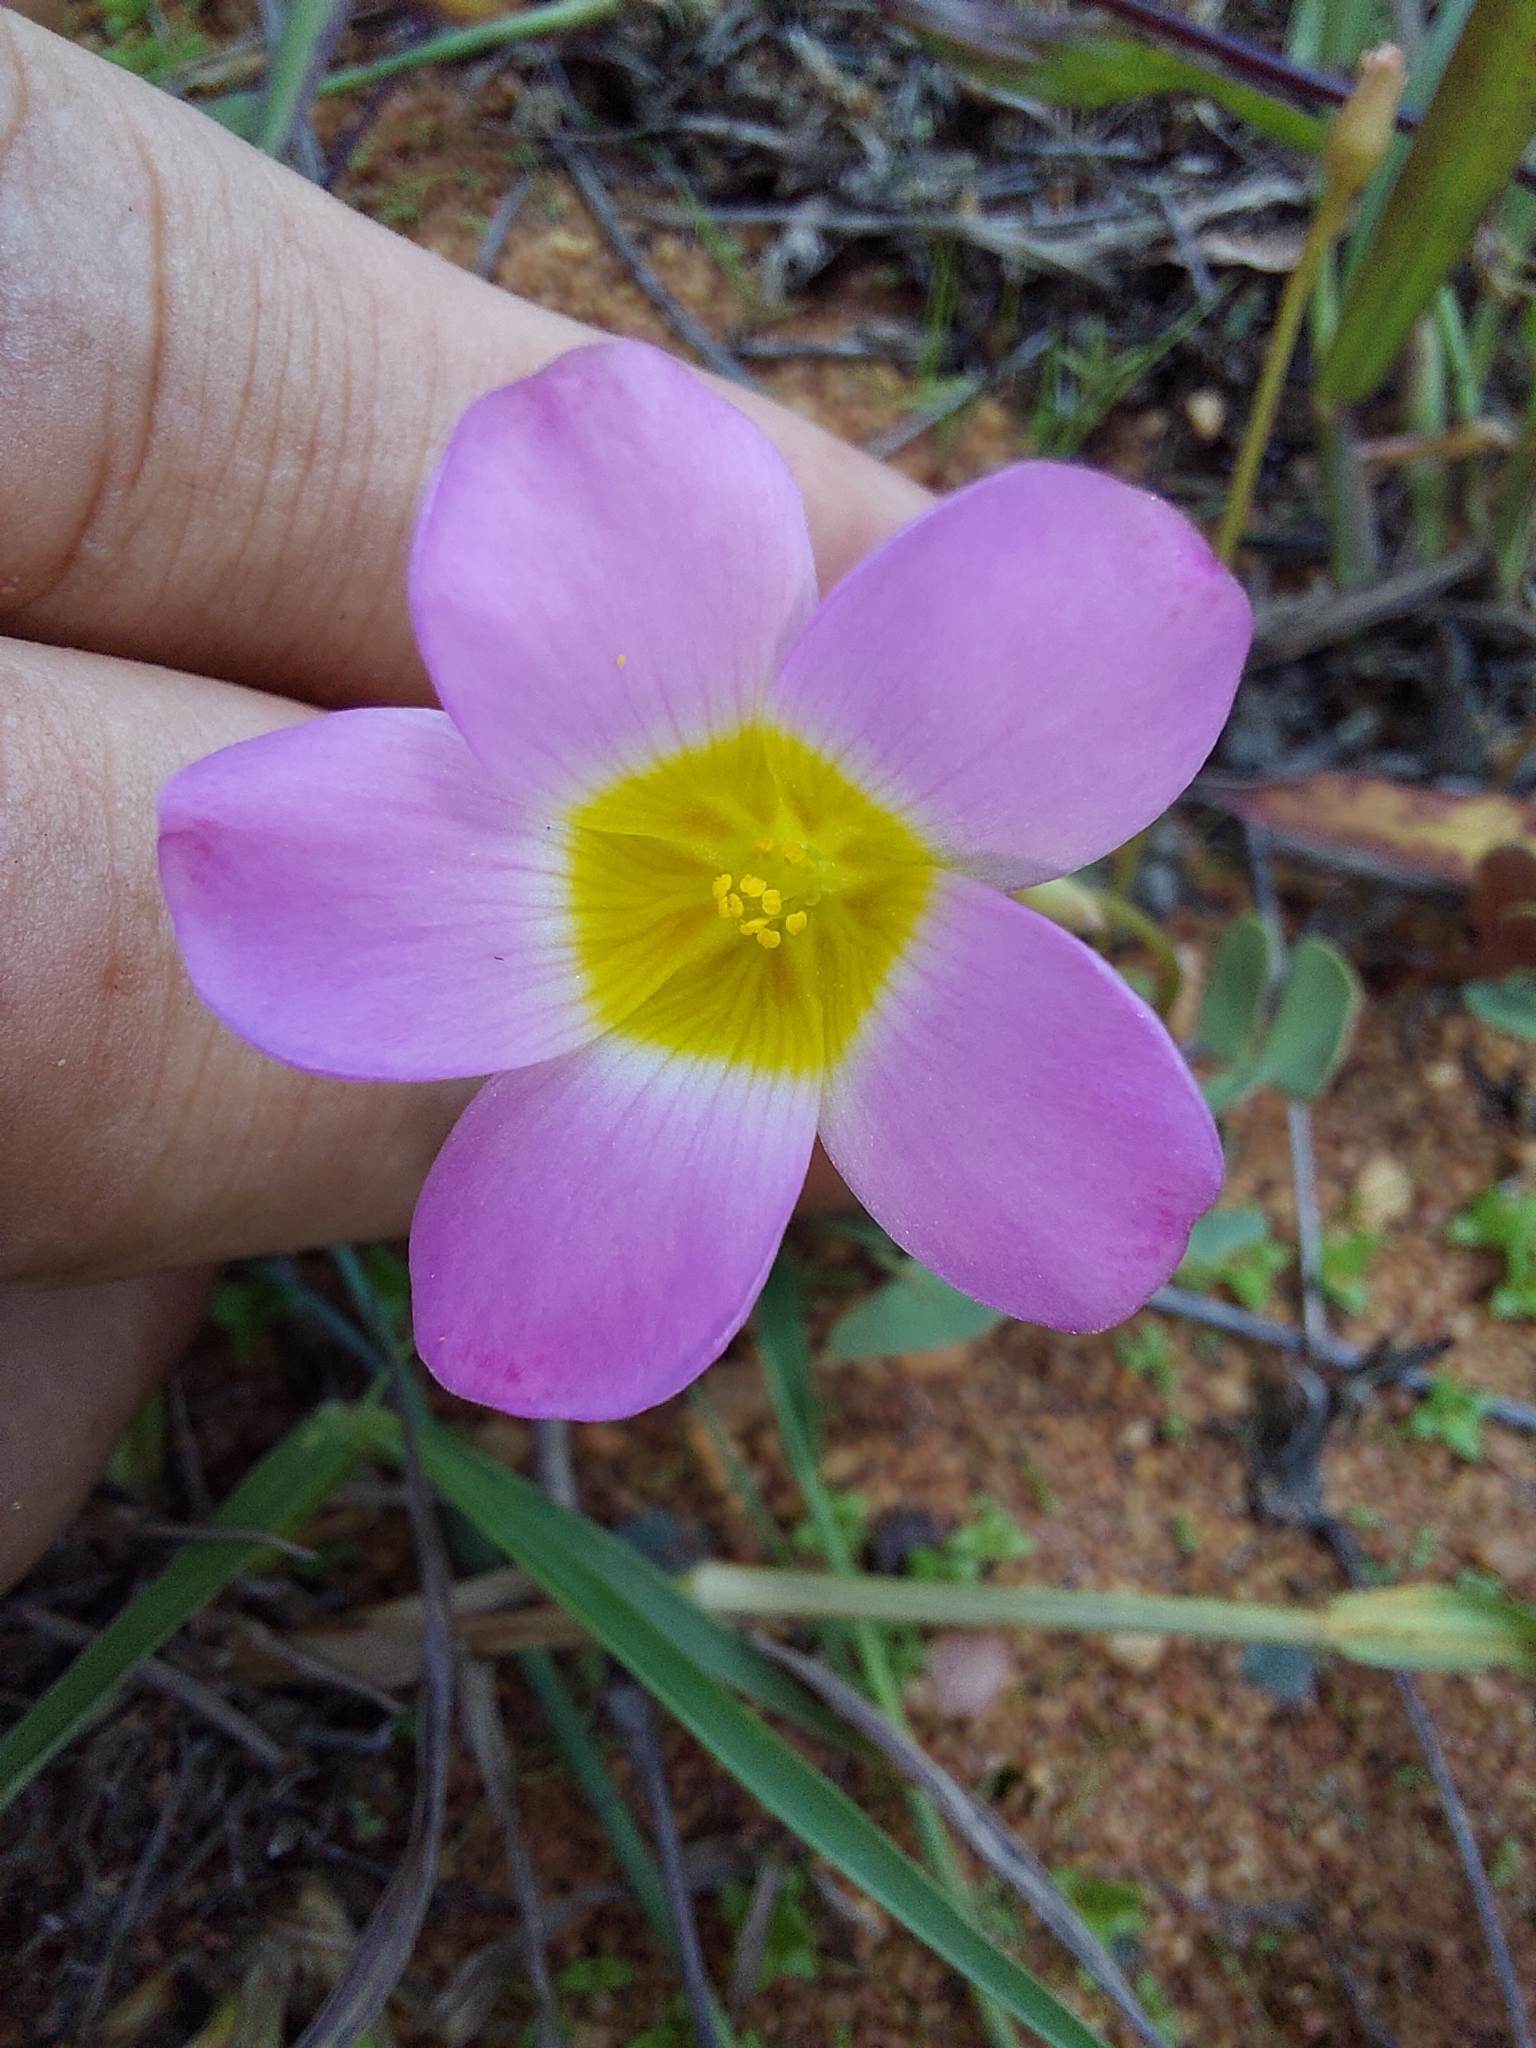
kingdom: Plantae
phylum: Tracheophyta
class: Magnoliopsida
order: Oxalidales
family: Oxalidaceae
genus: Oxalis
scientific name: Oxalis obliquifolia
